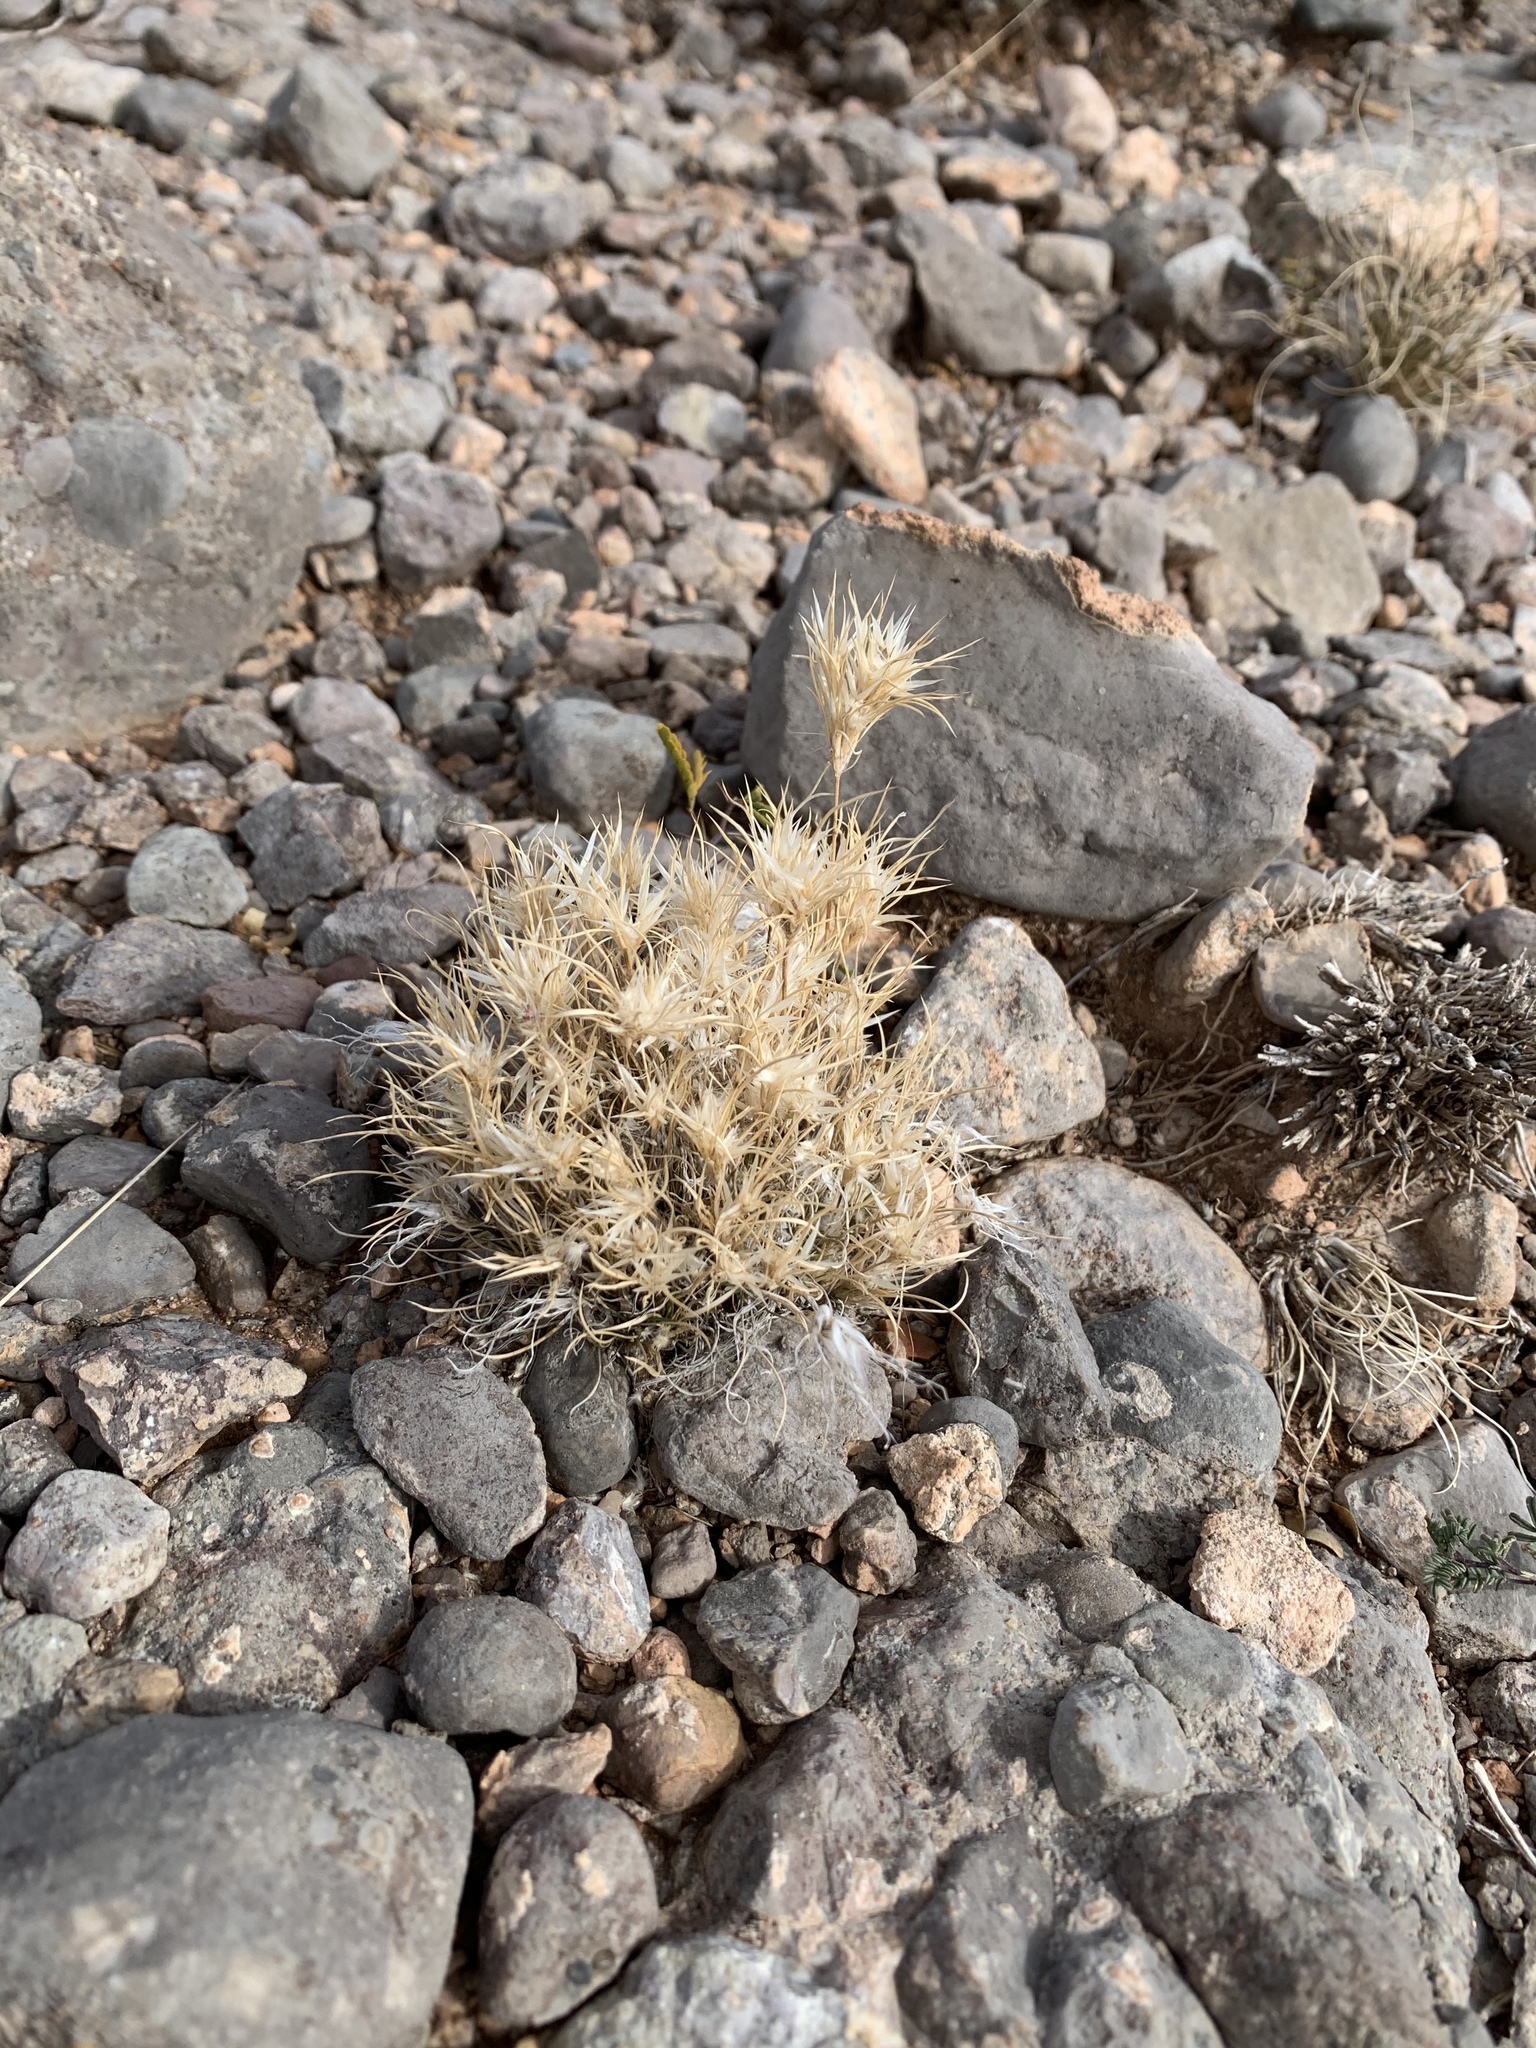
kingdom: Plantae
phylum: Tracheophyta
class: Liliopsida
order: Poales
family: Poaceae
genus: Dasyochloa
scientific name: Dasyochloa pulchella
